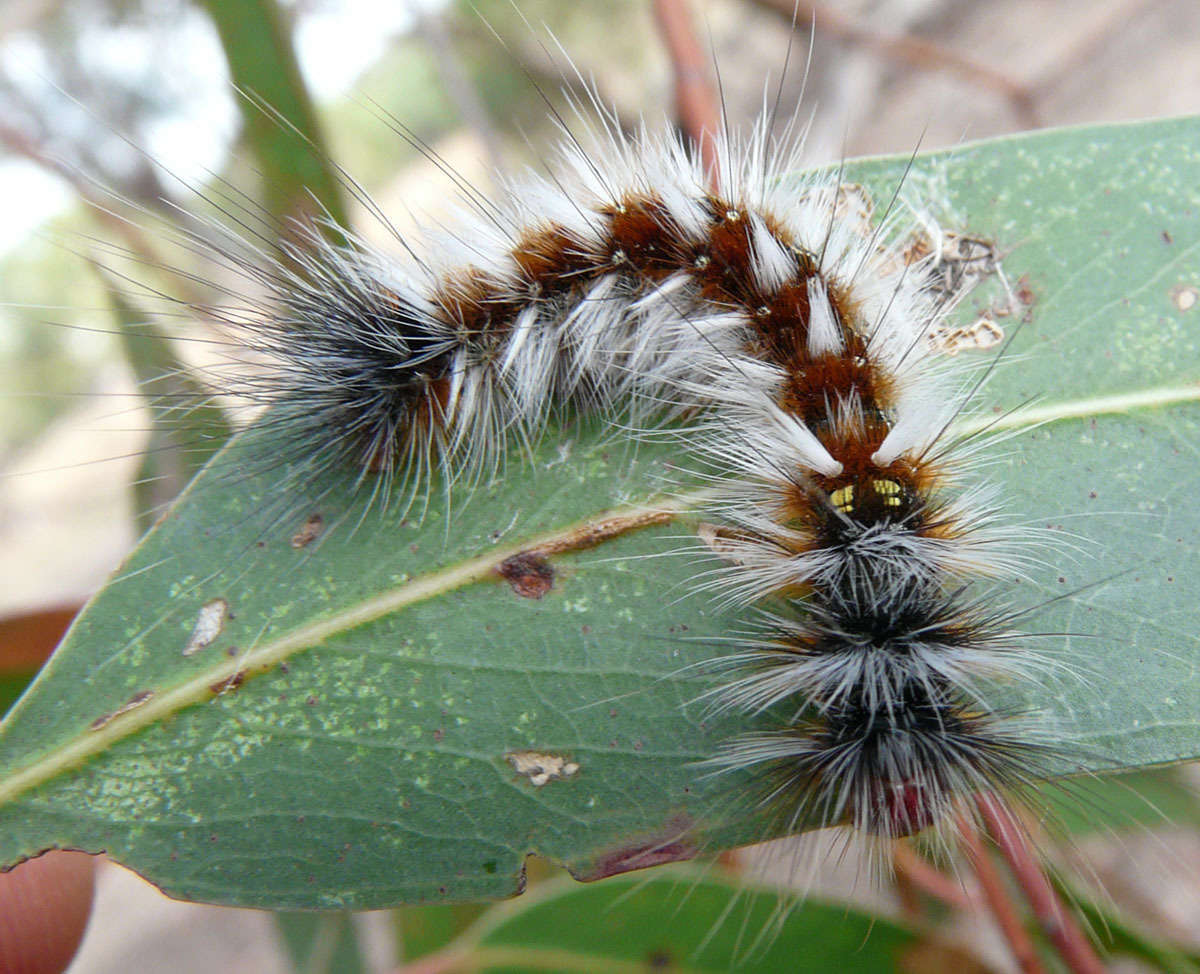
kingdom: Animalia
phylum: Arthropoda
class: Insecta
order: Lepidoptera
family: Anthelidae
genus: Anthela
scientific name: Anthela varia
